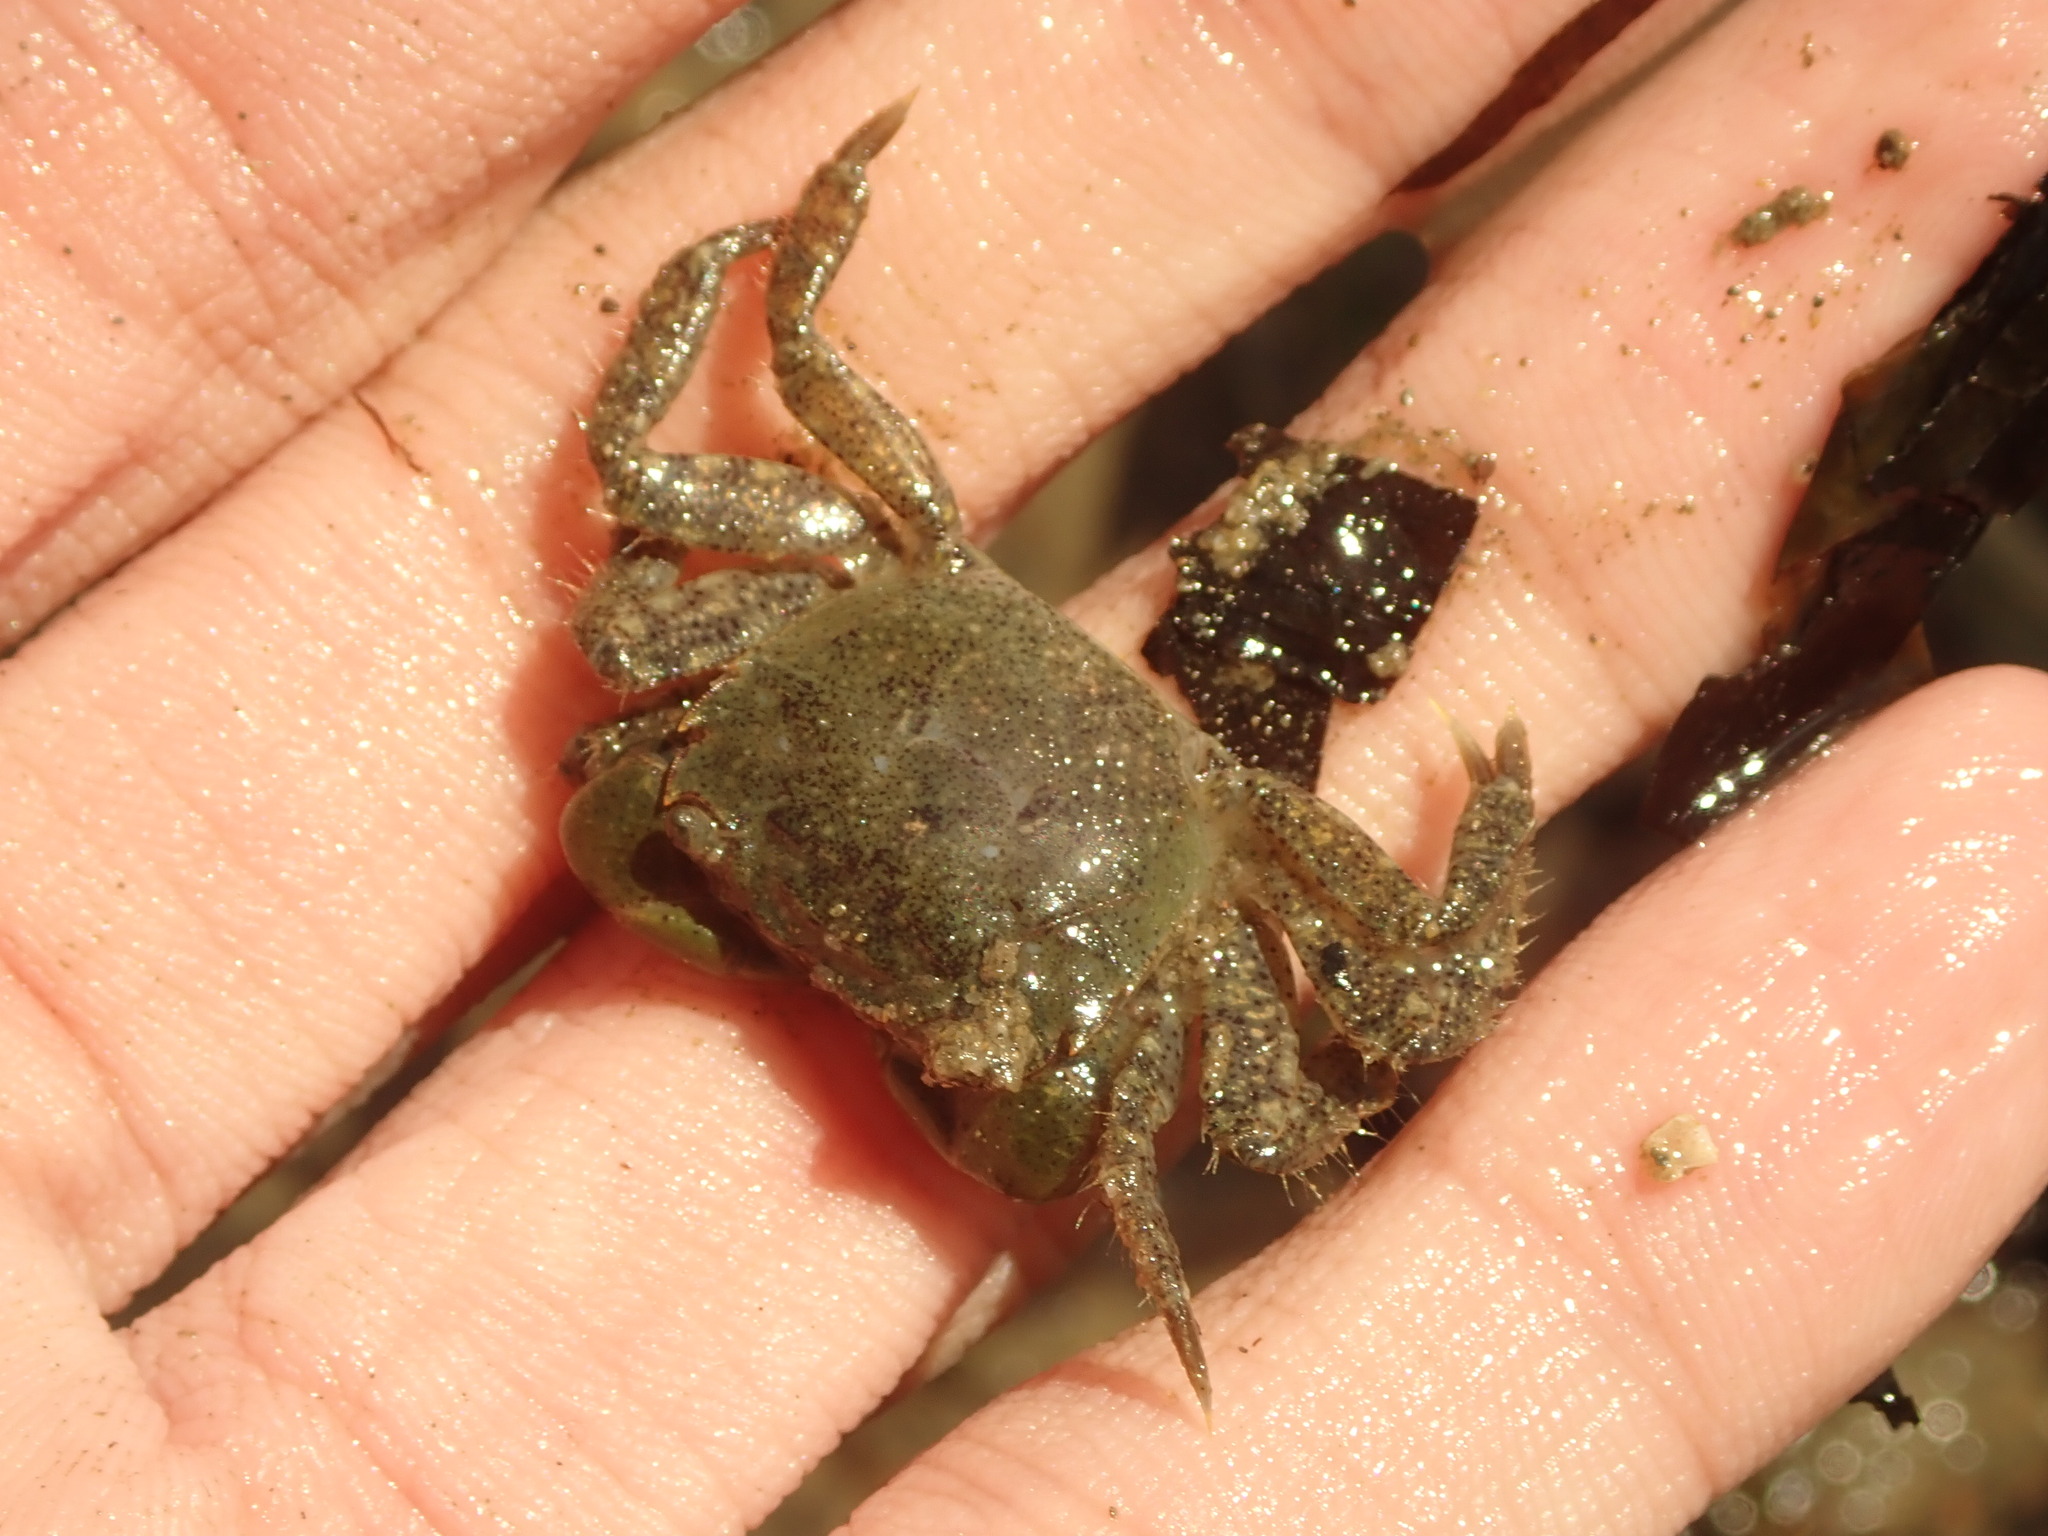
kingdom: Animalia
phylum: Arthropoda
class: Malacostraca
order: Decapoda
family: Varunidae
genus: Hemigrapsus
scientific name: Hemigrapsus oregonensis
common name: Yellow shore crab
